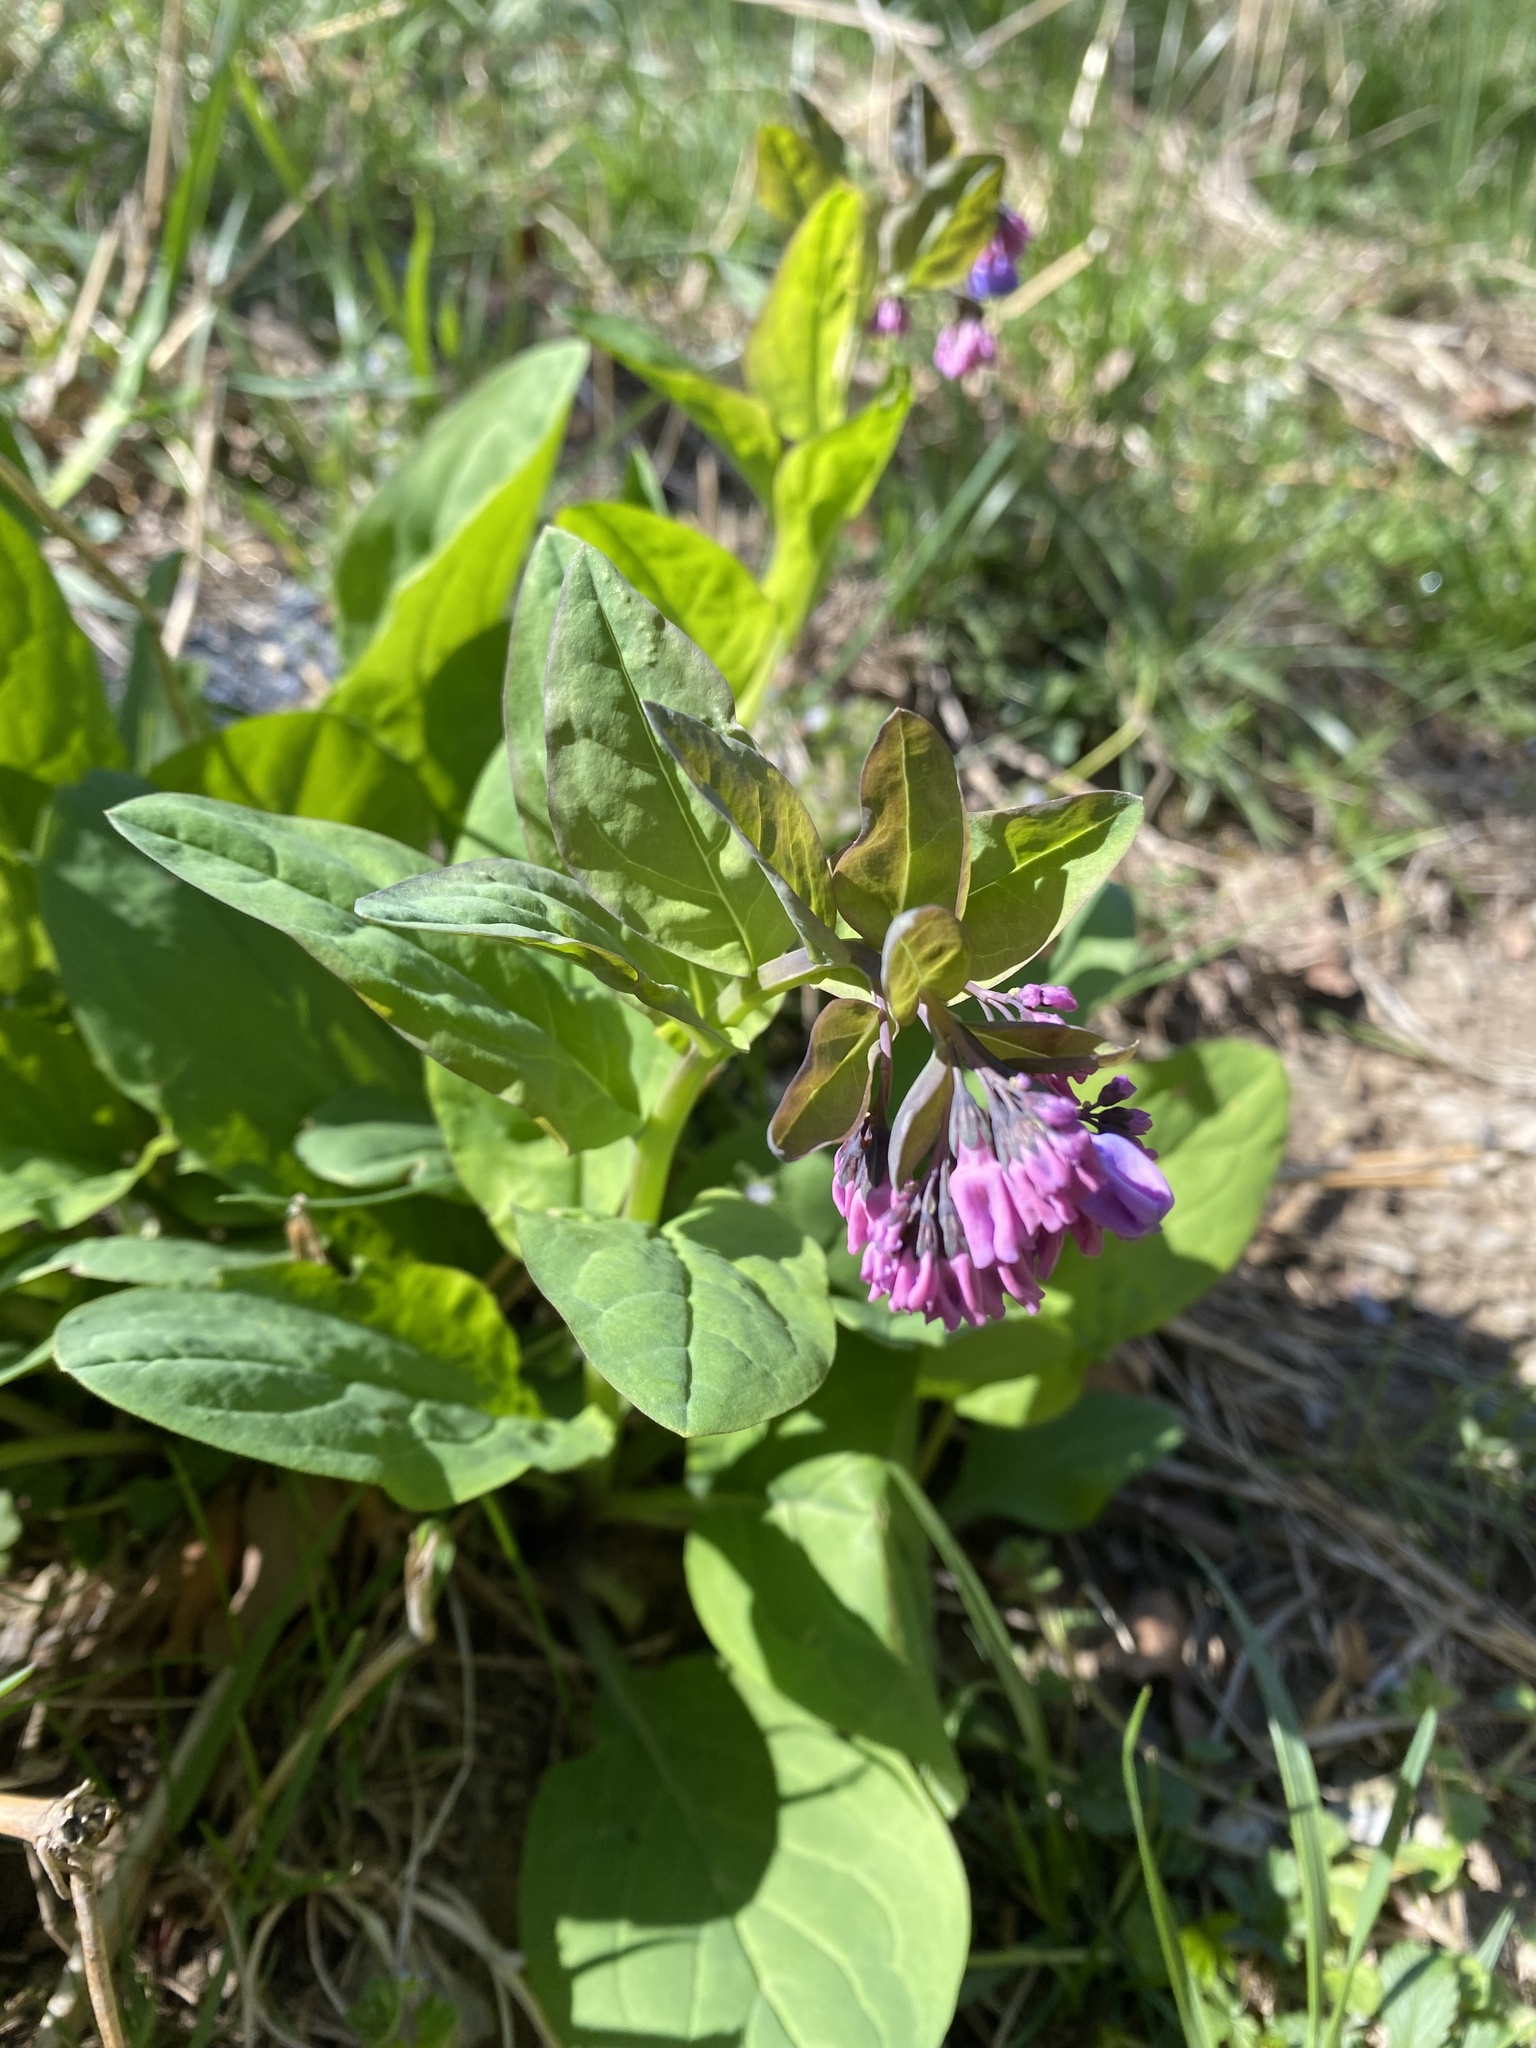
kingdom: Plantae
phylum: Tracheophyta
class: Magnoliopsida
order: Boraginales
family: Boraginaceae
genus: Mertensia
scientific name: Mertensia virginica
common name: Virginia bluebells
